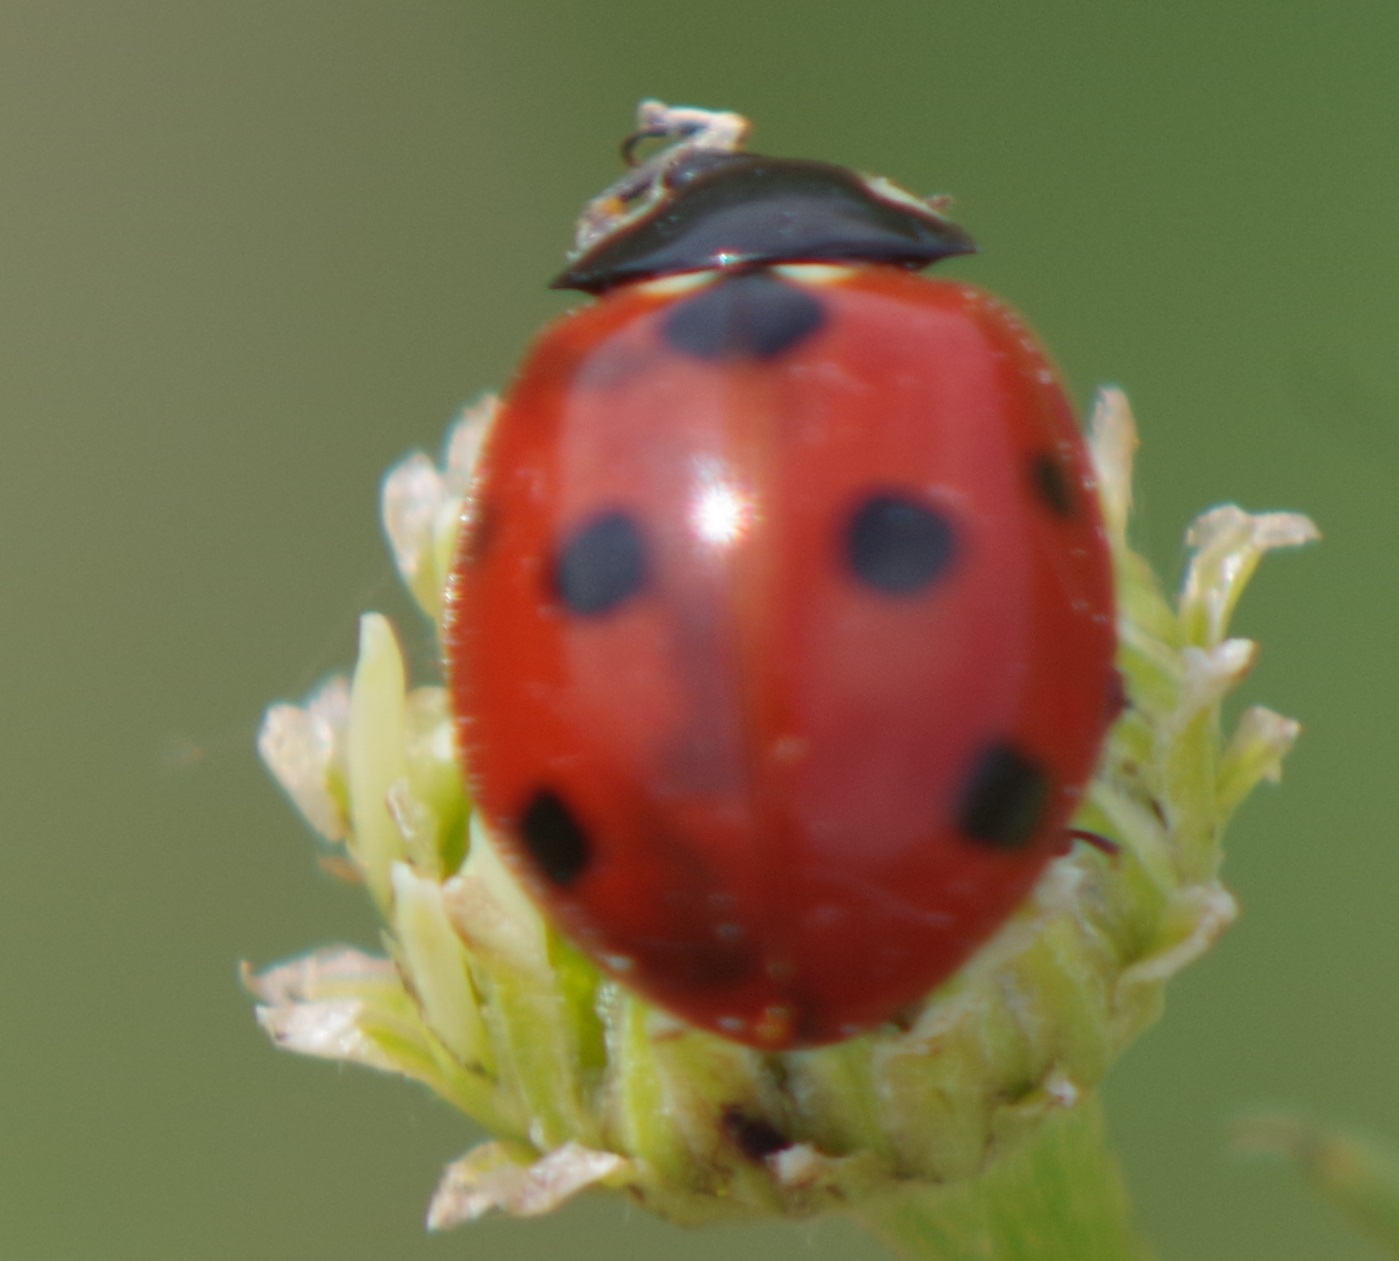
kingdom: Animalia
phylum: Arthropoda
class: Insecta
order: Coleoptera
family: Coccinellidae
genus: Coccinella
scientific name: Coccinella septempunctata
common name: Sevenspotted lady beetle
